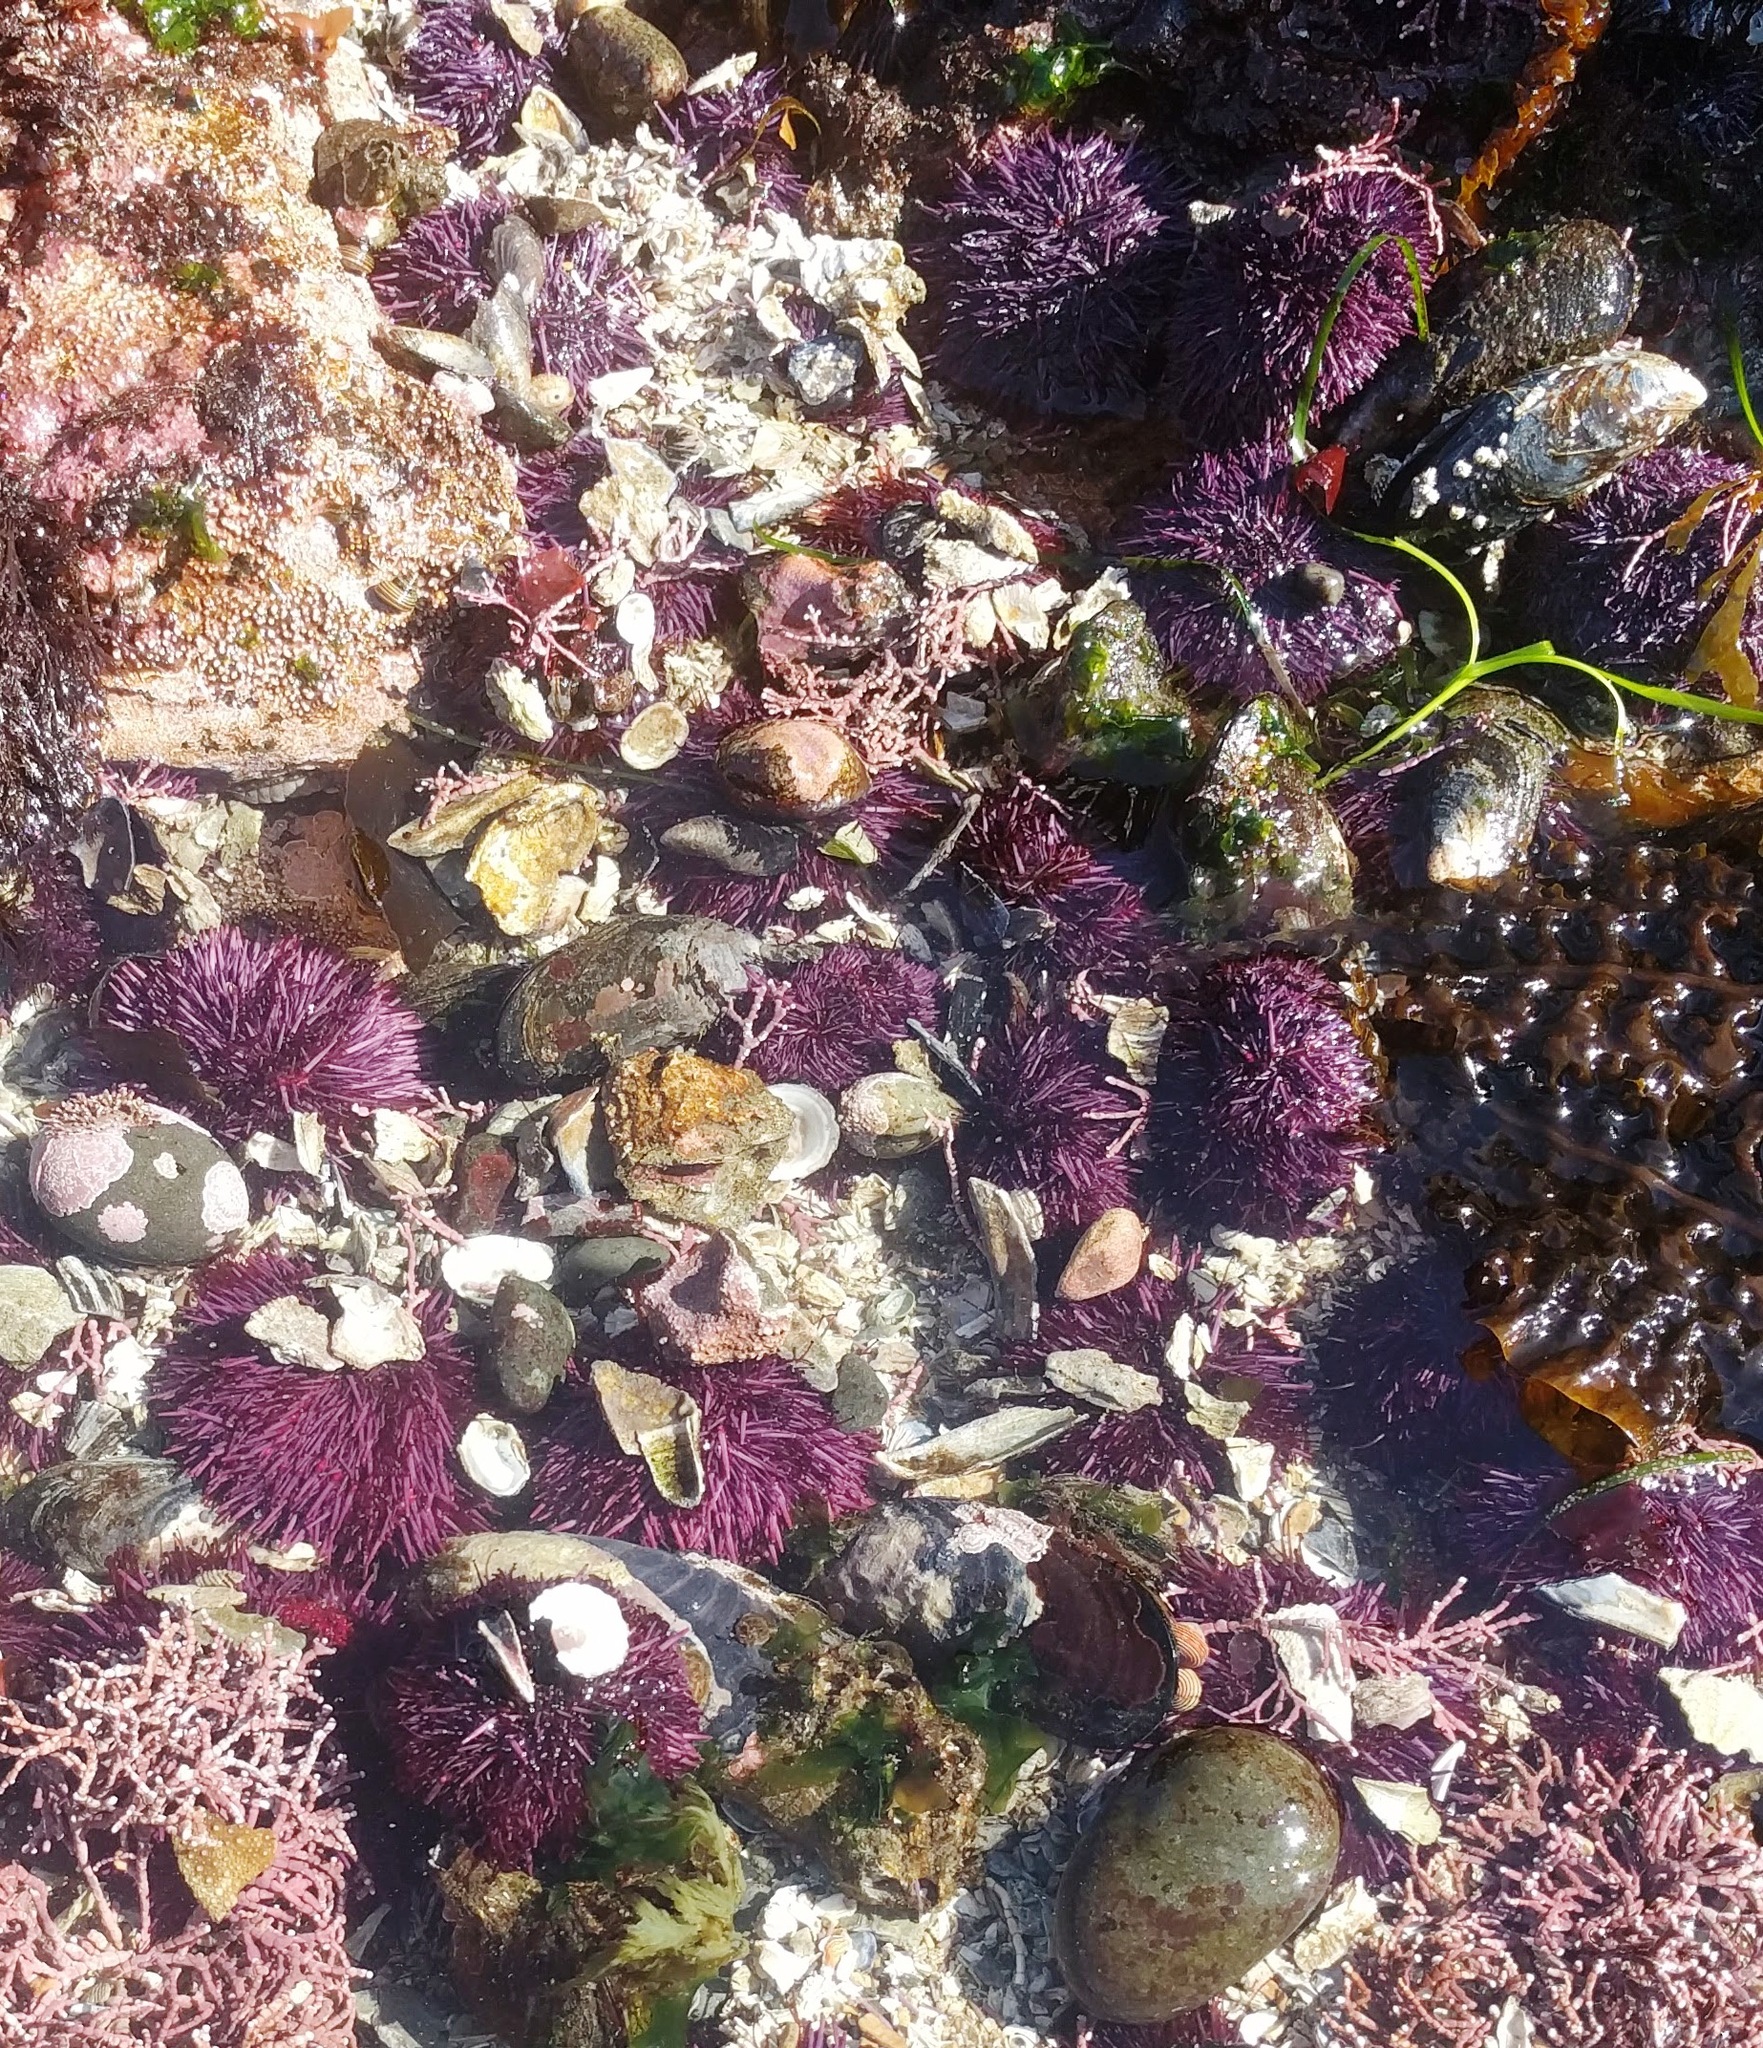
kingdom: Animalia
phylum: Echinodermata
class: Echinoidea
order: Camarodonta
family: Strongylocentrotidae
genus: Strongylocentrotus
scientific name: Strongylocentrotus purpuratus
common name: Purple sea urchin
